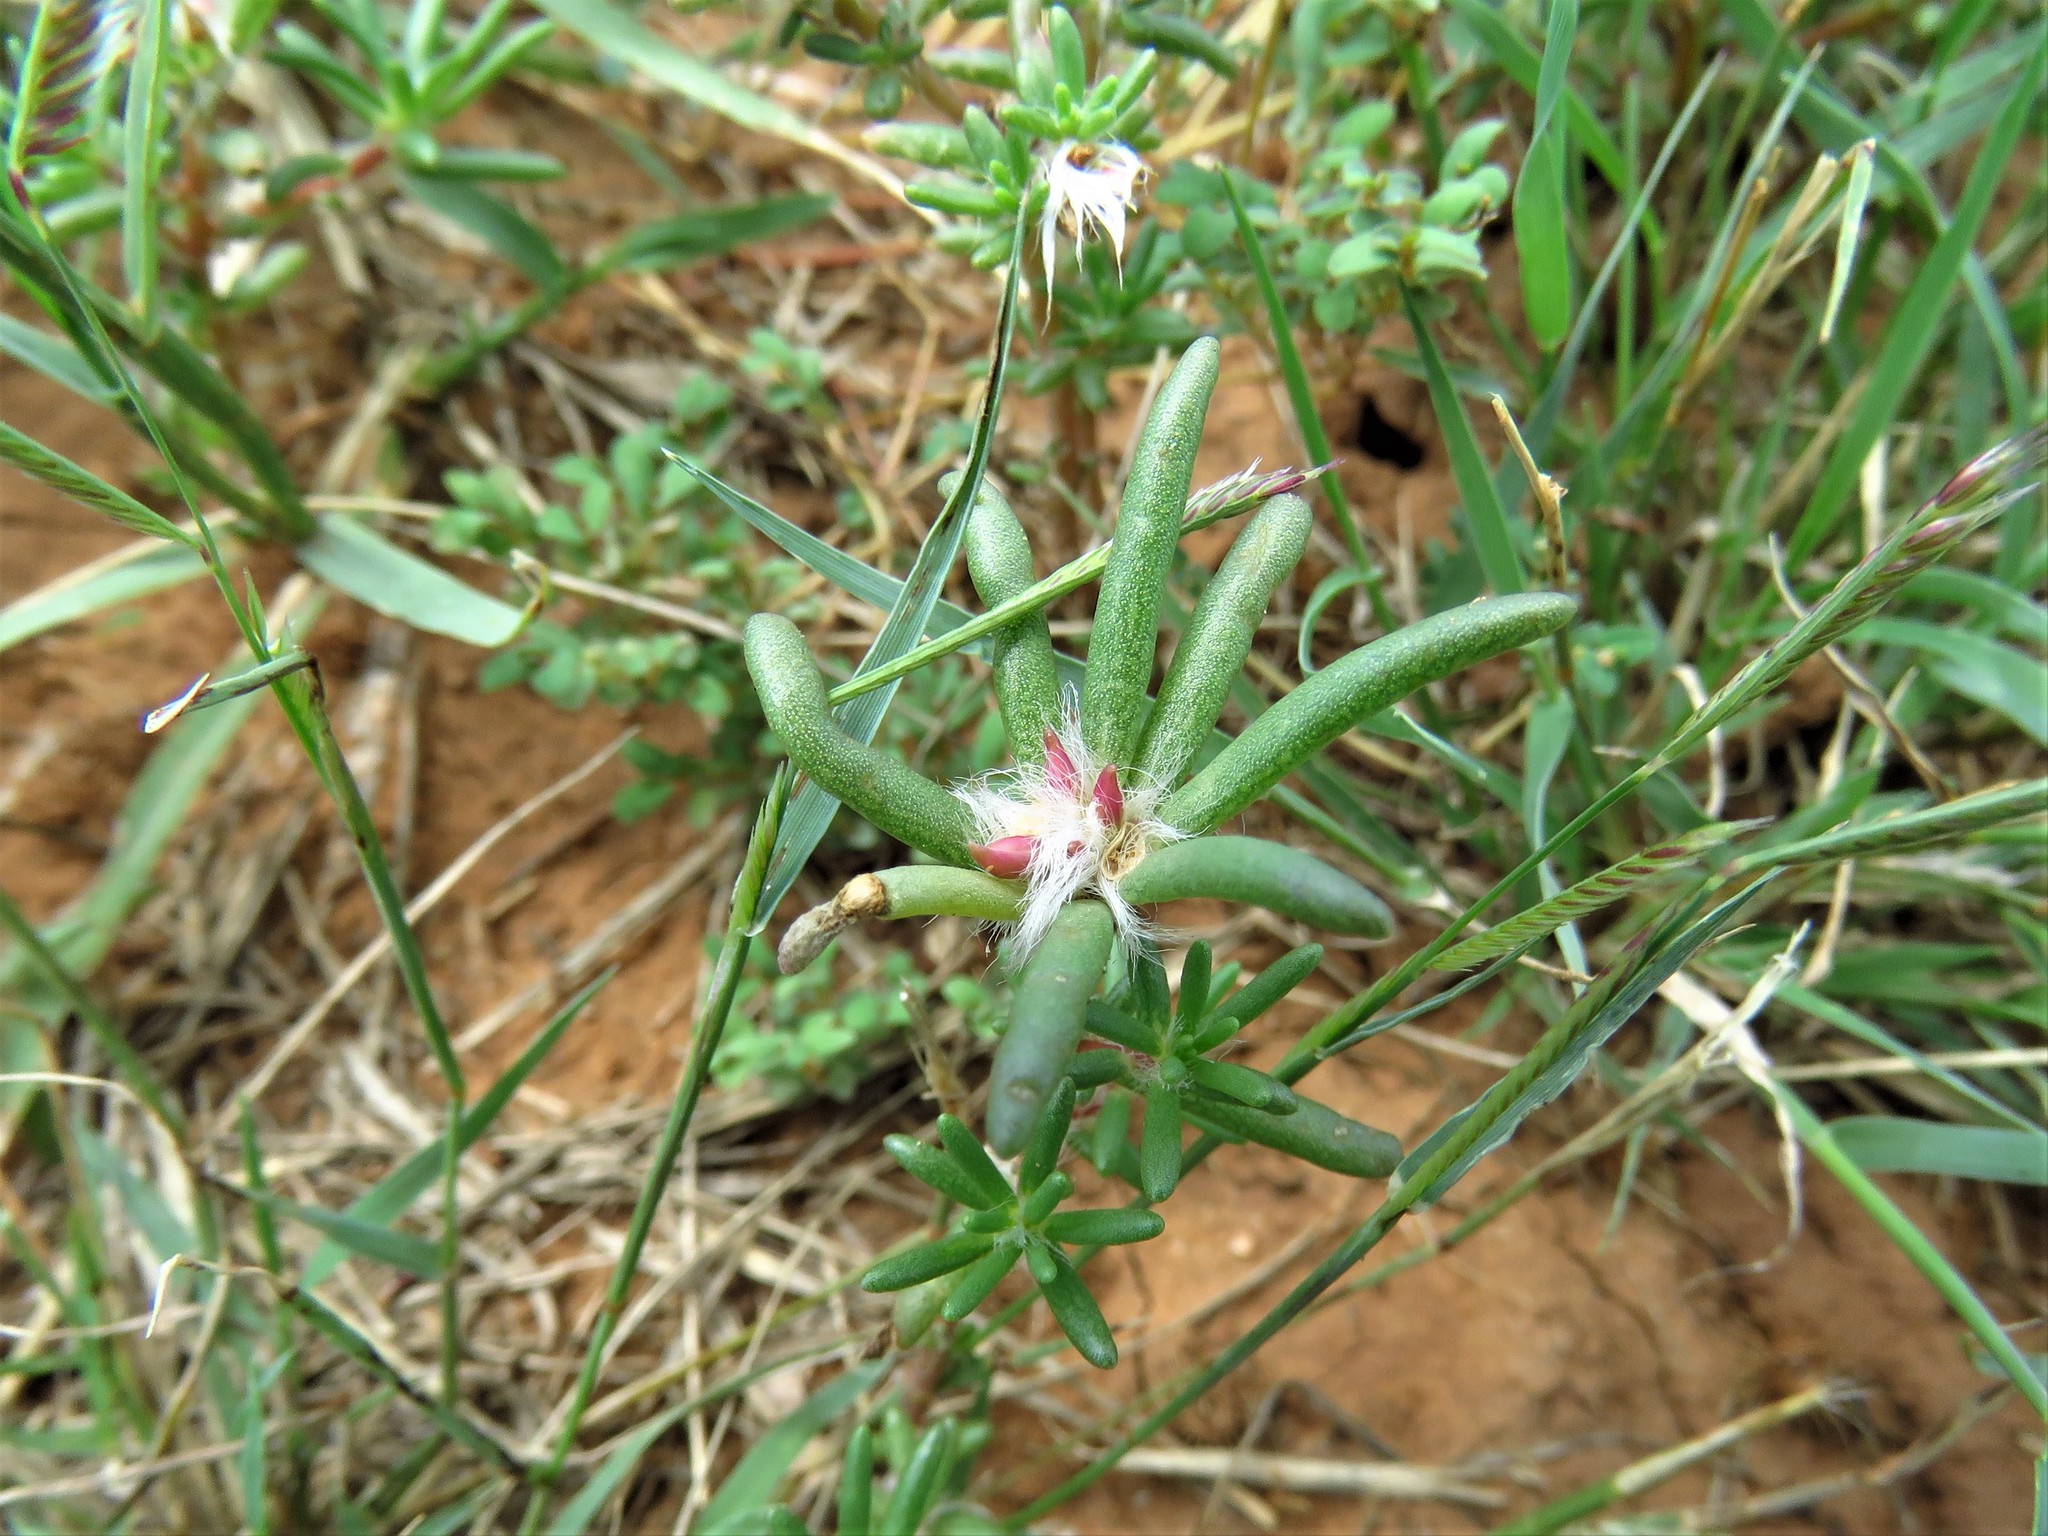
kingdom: Plantae
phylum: Tracheophyta
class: Magnoliopsida
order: Caryophyllales
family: Portulacaceae
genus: Portulaca
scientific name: Portulaca pilosa
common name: Kiss me quick
